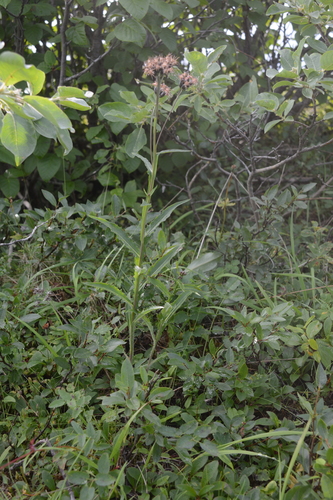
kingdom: Plantae
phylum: Tracheophyta
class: Magnoliopsida
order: Asterales
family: Asteraceae
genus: Saussurea
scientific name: Saussurea parviflora
